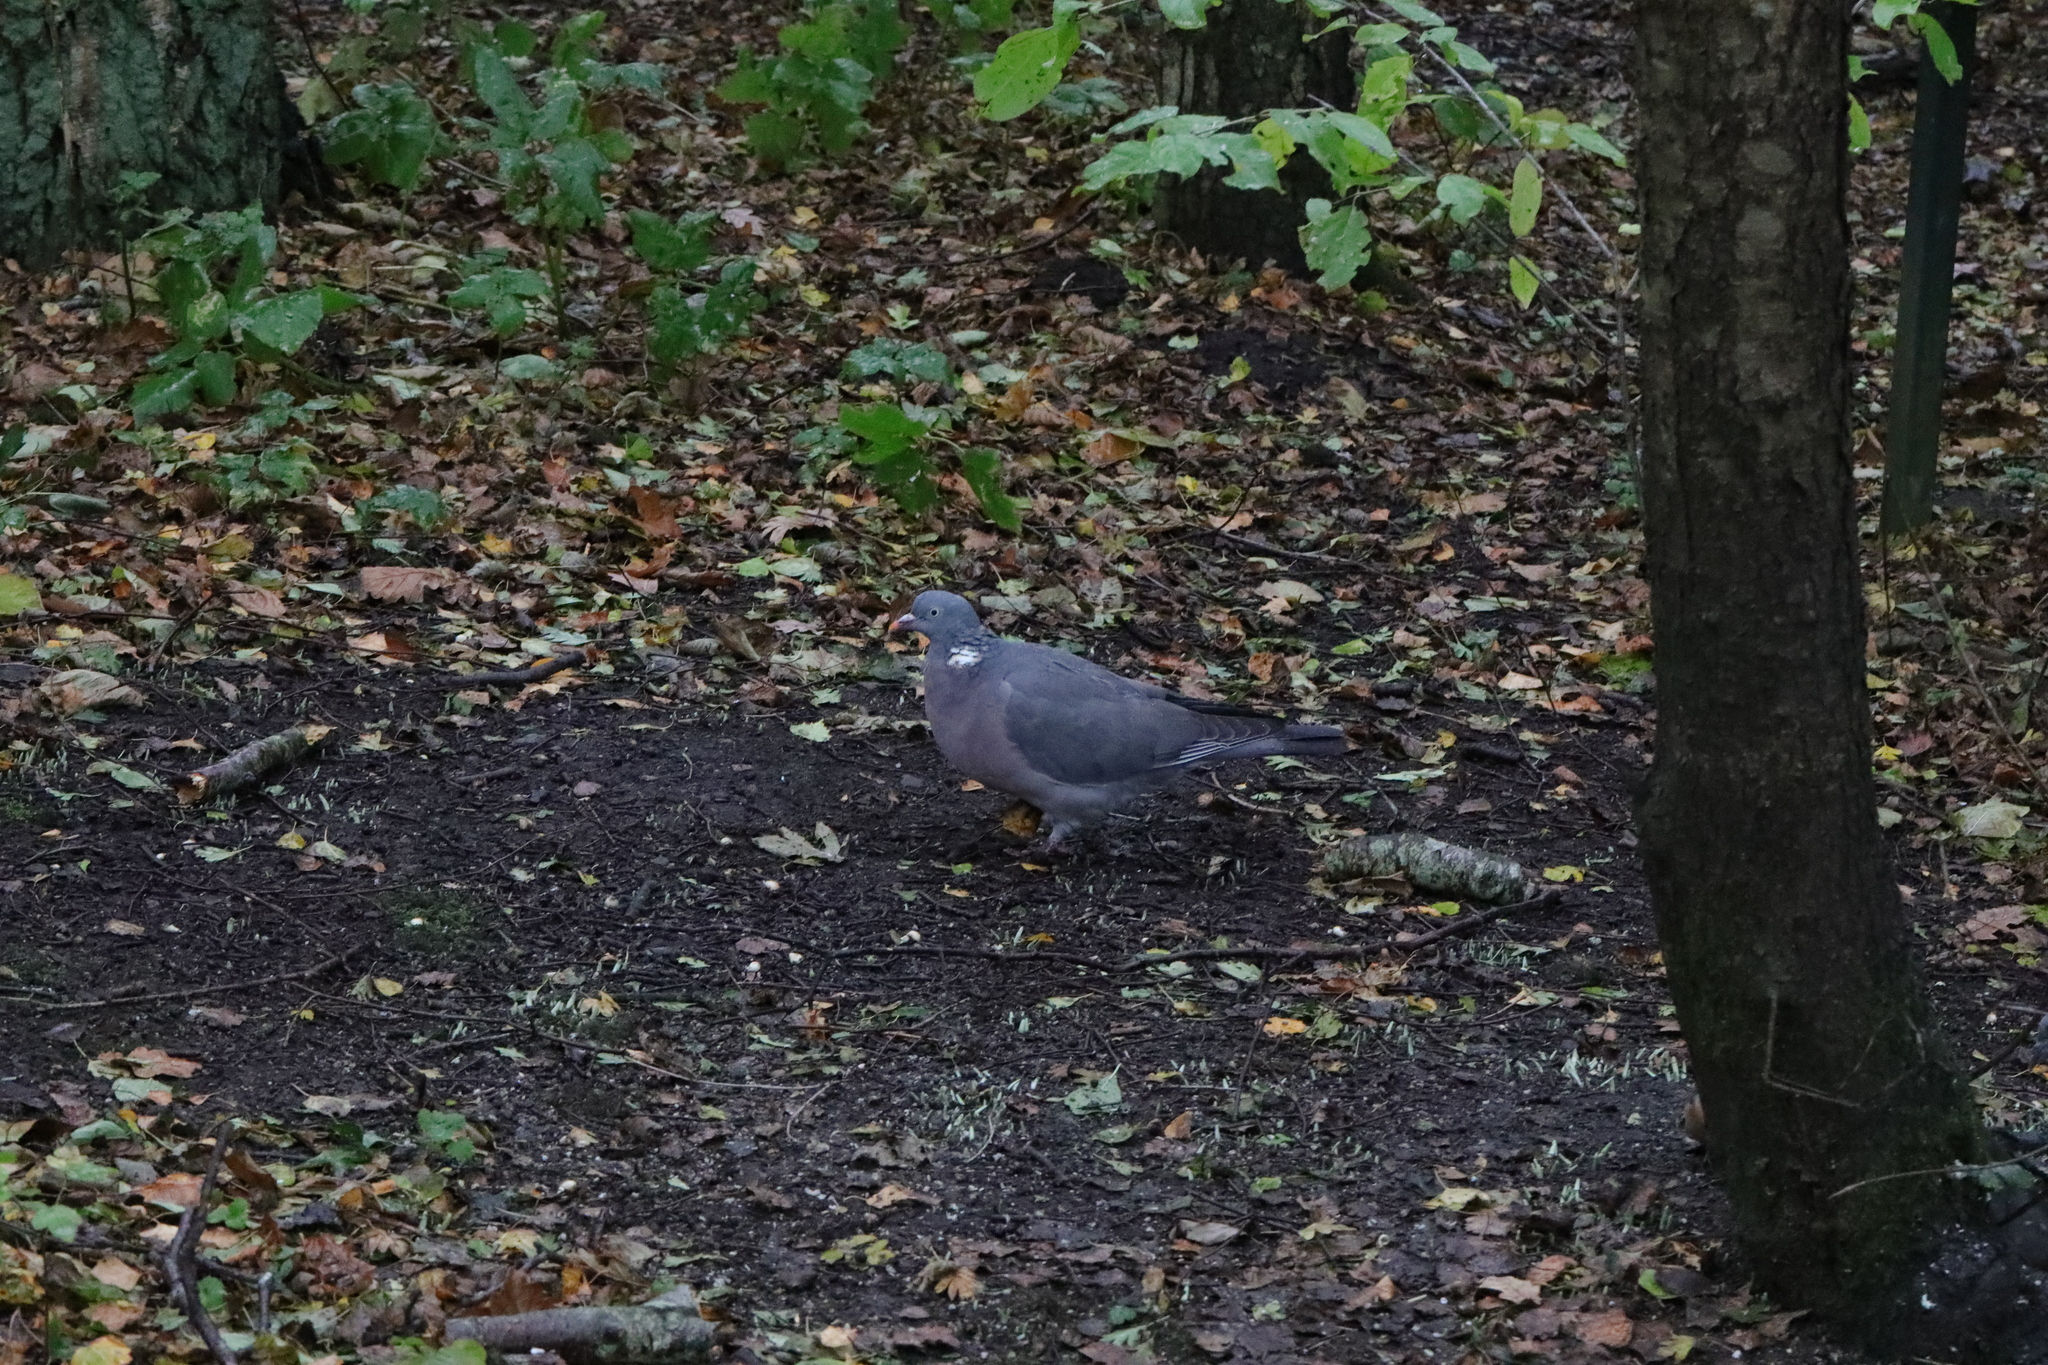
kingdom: Animalia
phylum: Chordata
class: Aves
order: Columbiformes
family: Columbidae
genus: Columba
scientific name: Columba palumbus
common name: Common wood pigeon
